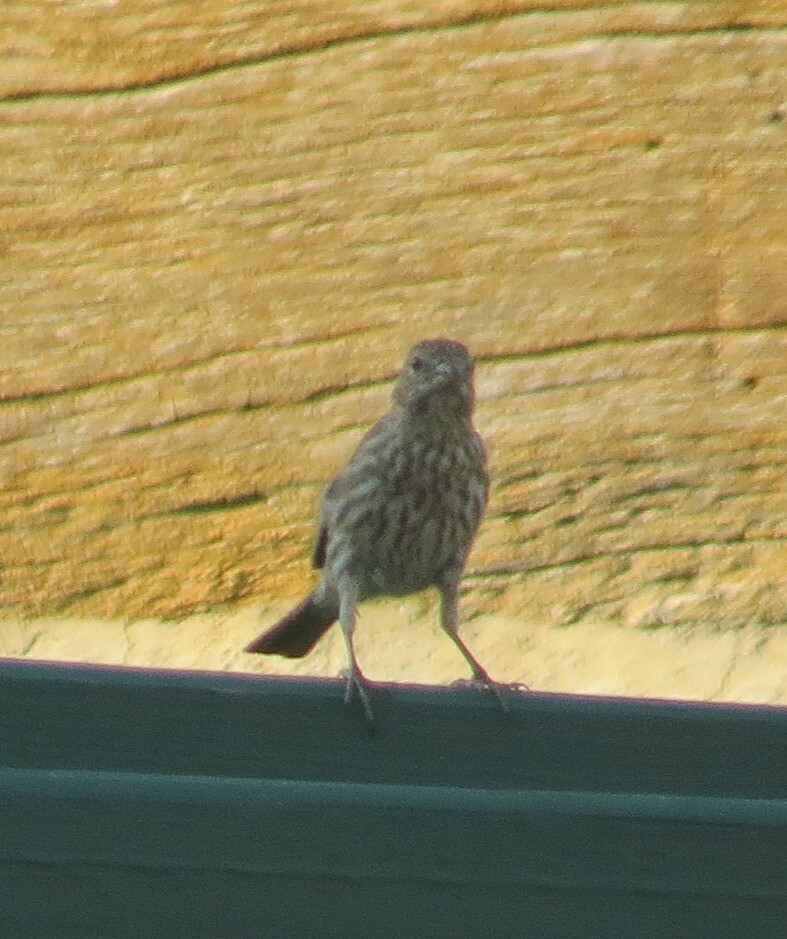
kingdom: Animalia
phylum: Chordata
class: Aves
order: Passeriformes
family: Fringillidae
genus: Haemorhous
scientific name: Haemorhous mexicanus
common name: House finch
